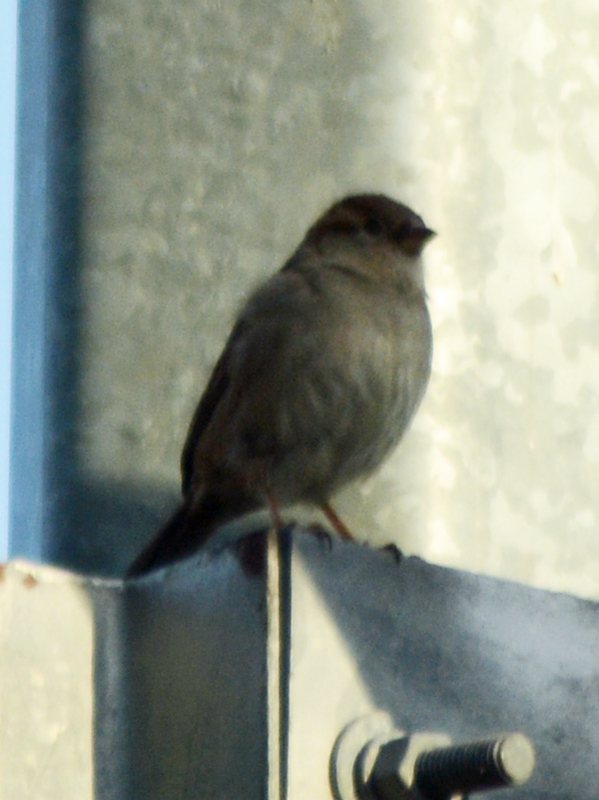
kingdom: Animalia
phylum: Chordata
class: Aves
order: Passeriformes
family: Passeridae
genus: Passer
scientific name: Passer domesticus
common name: House sparrow
